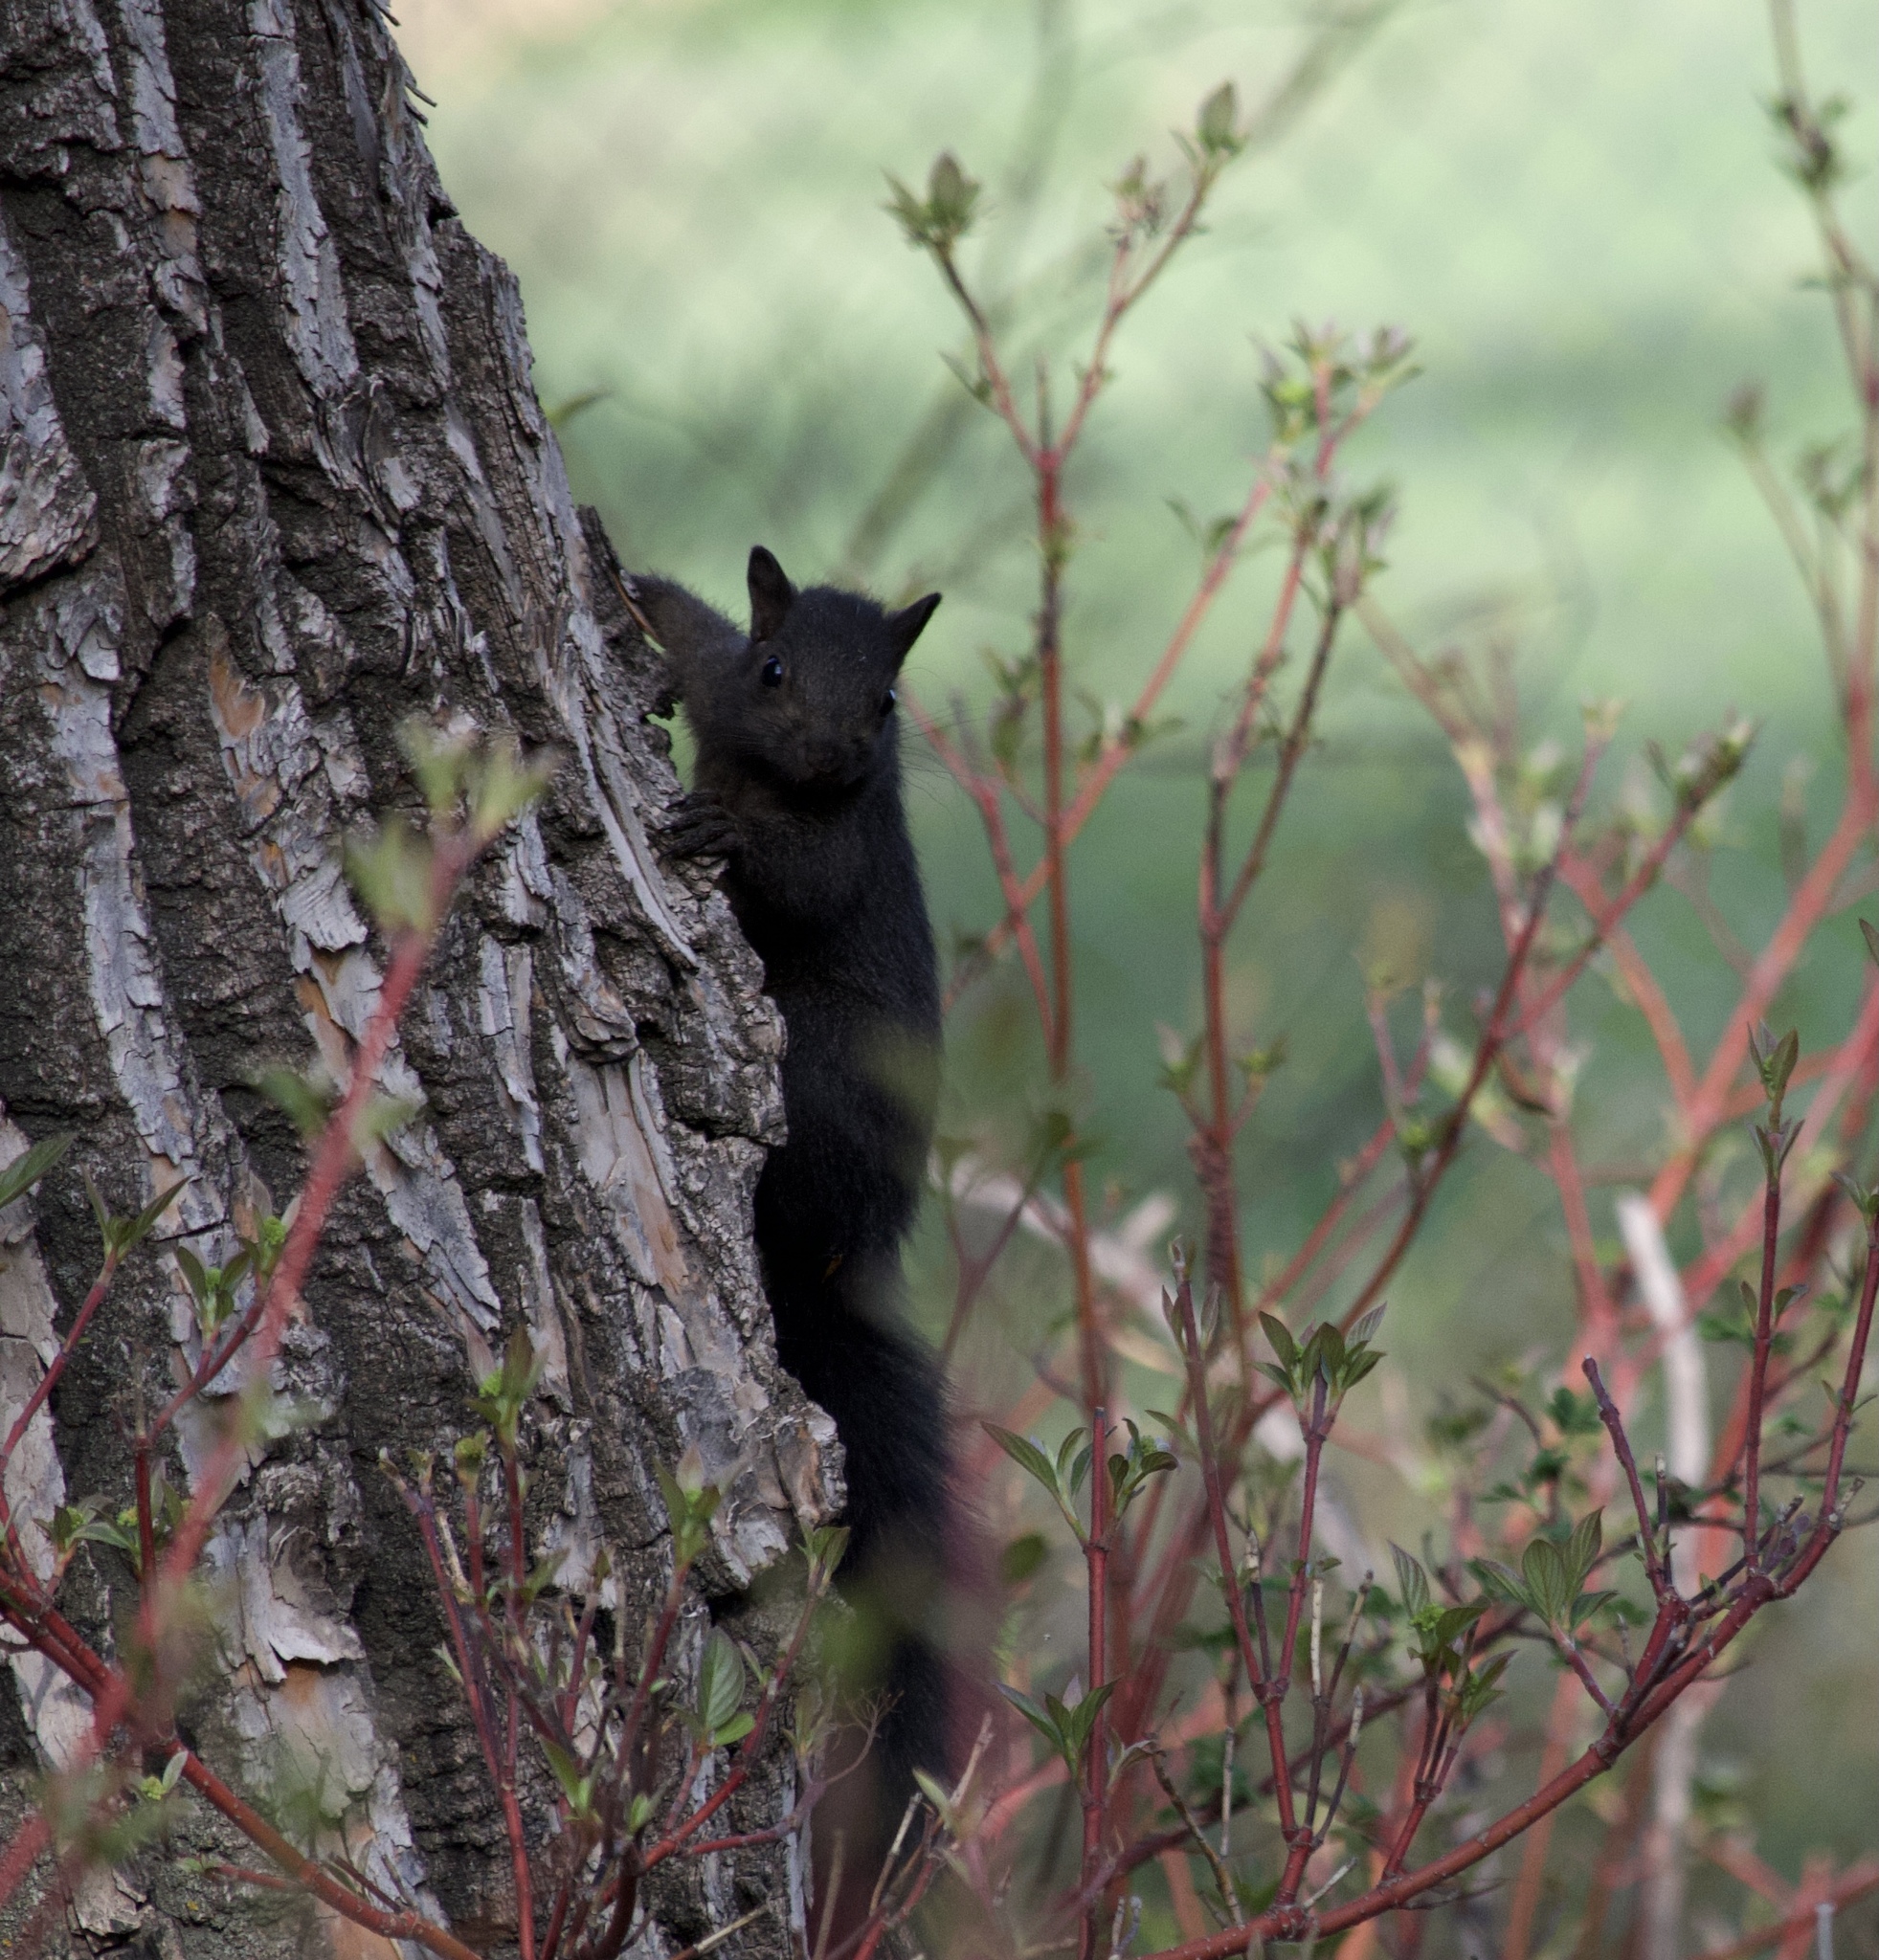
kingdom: Animalia
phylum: Chordata
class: Mammalia
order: Rodentia
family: Sciuridae
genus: Sciurus
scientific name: Sciurus carolinensis
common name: Eastern gray squirrel
